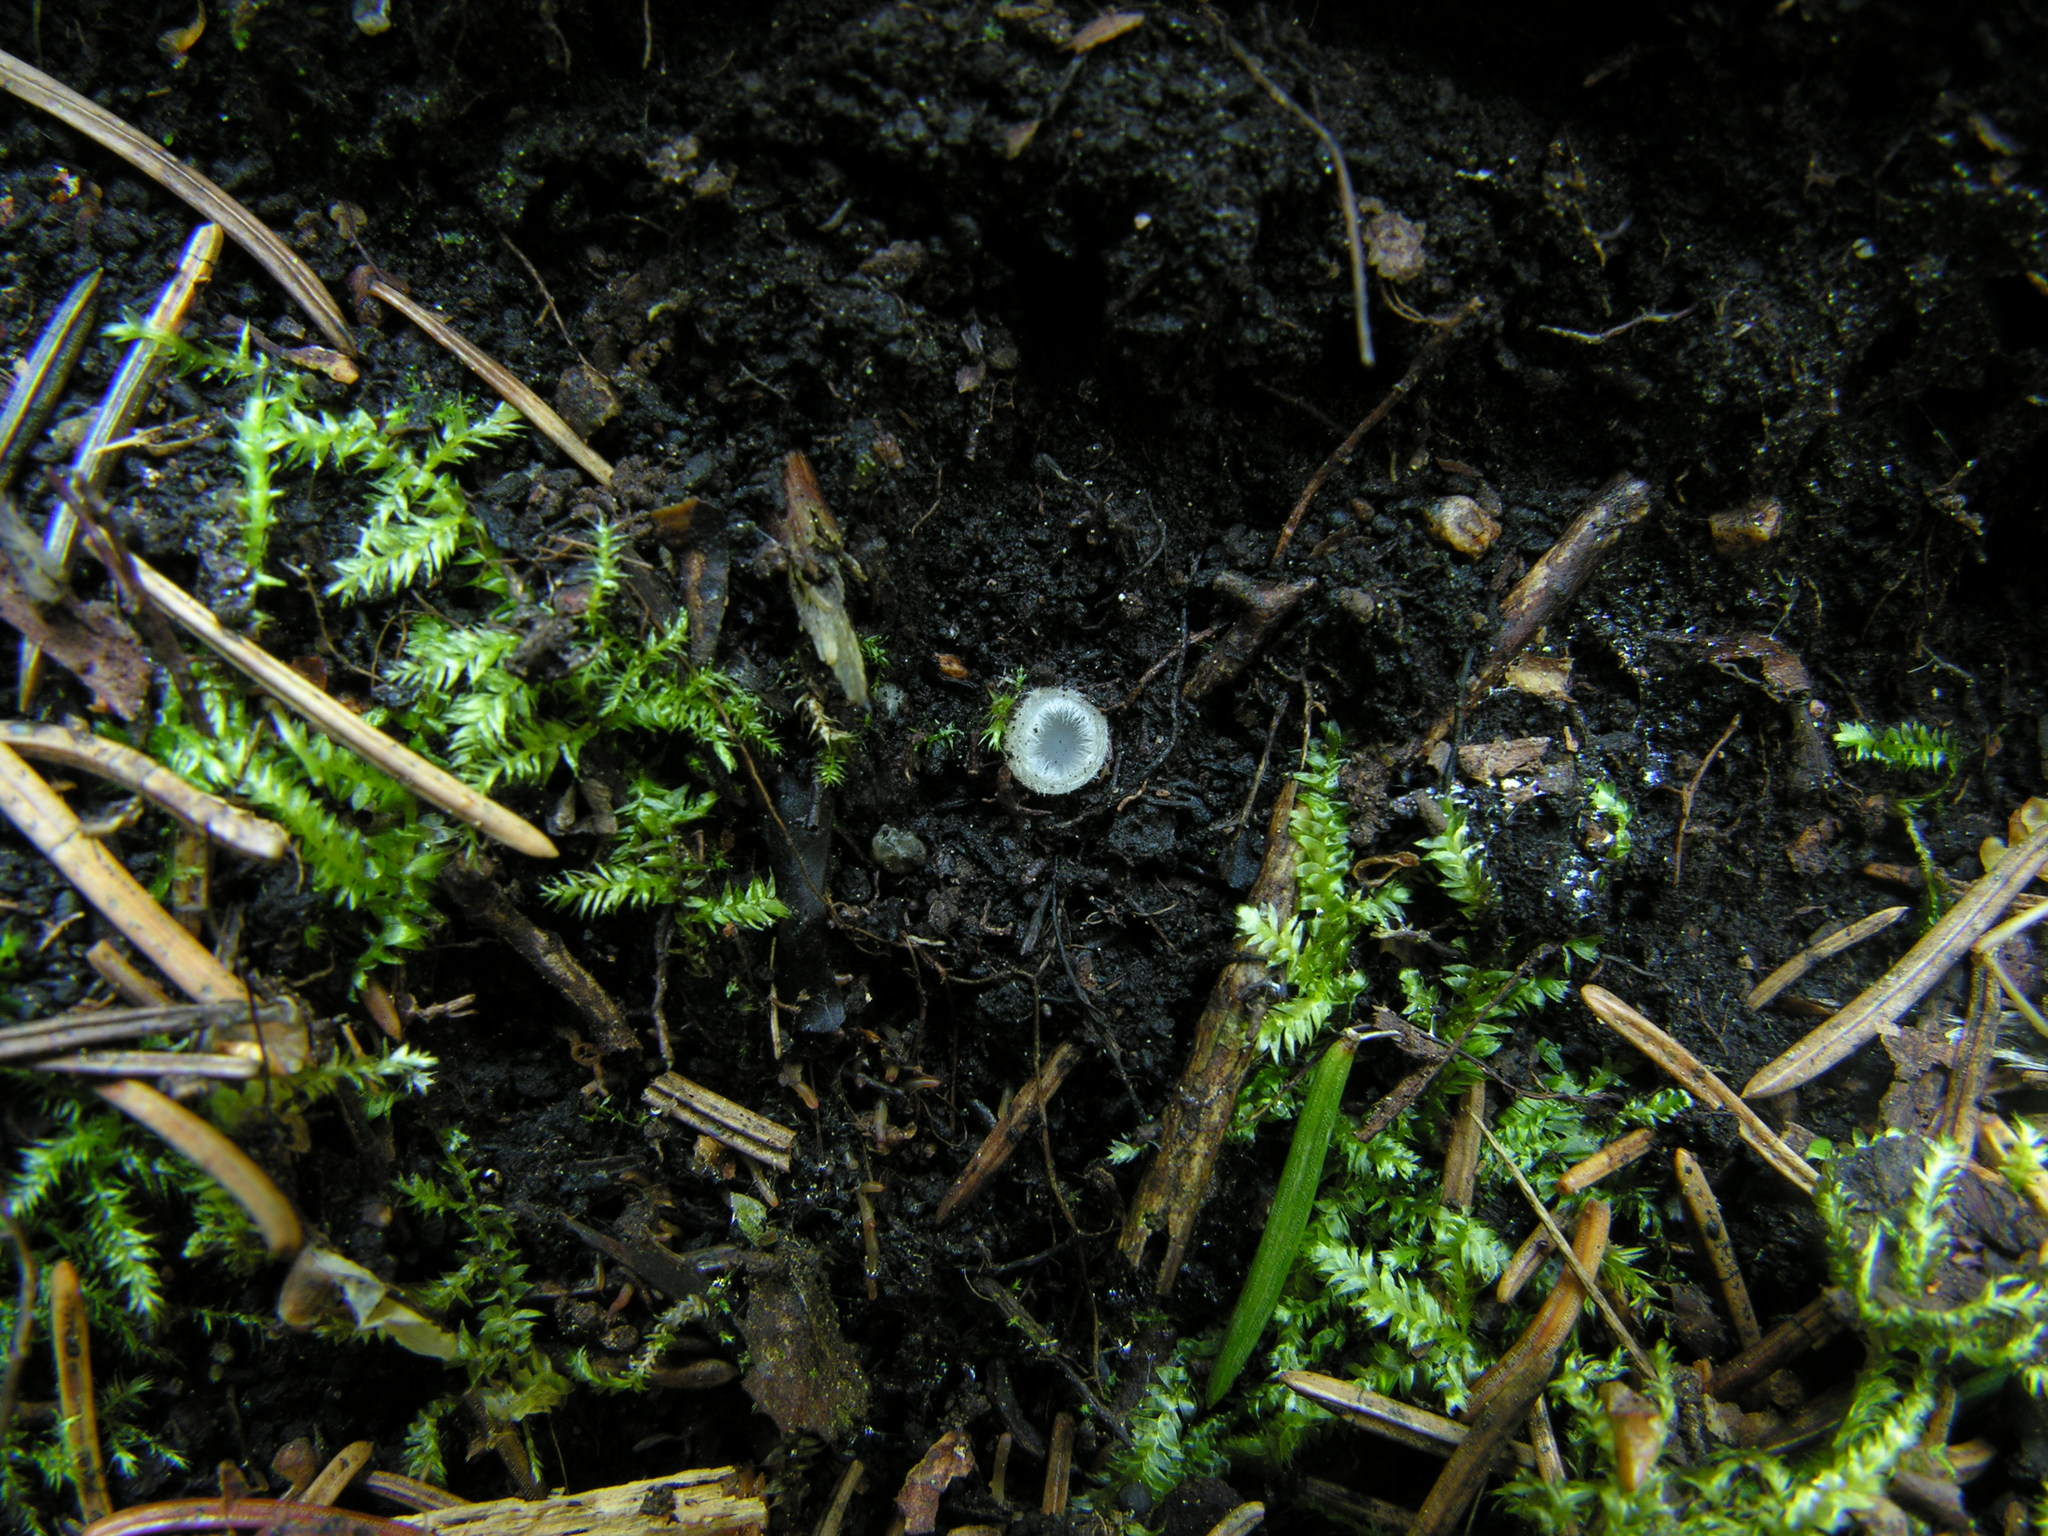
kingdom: Fungi
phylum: Ascomycota
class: Pezizomycetes
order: Pezizales
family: Pyronemataceae
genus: Leucoscypha
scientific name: Leucoscypha leucotricha
